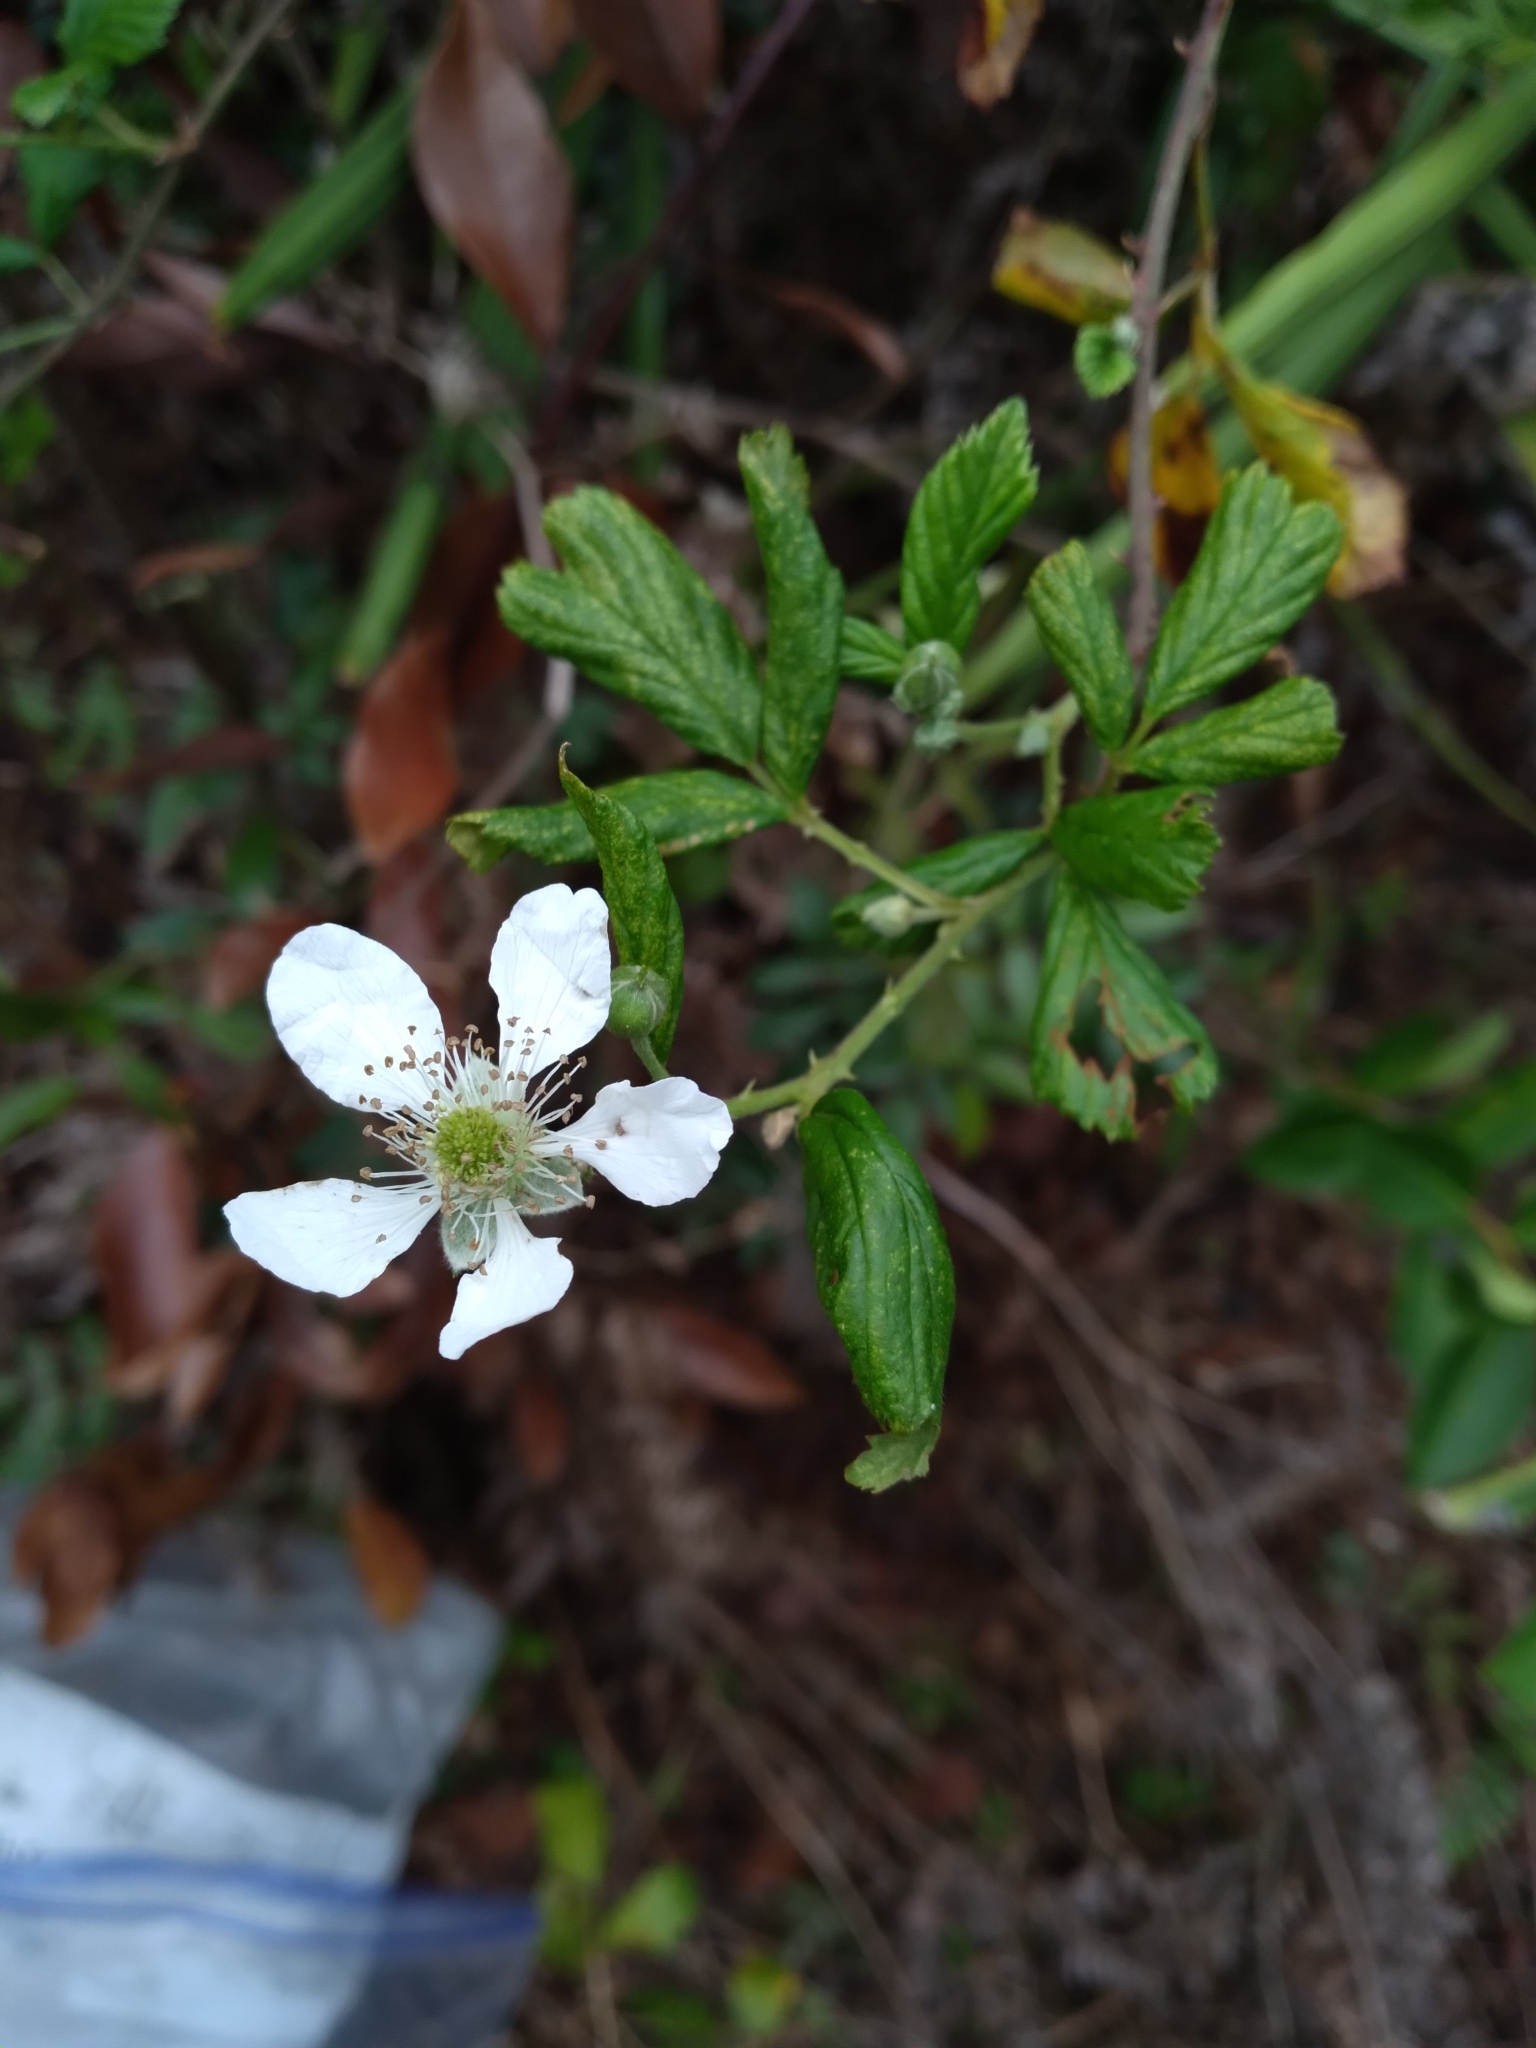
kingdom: Plantae
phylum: Tracheophyta
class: Magnoliopsida
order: Rosales
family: Rosaceae
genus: Rubus
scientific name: Rubus pensilvanicus
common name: Pennsylvania blackberry
